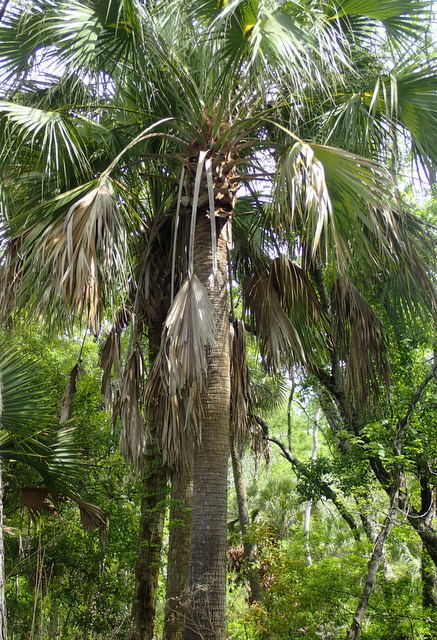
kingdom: Plantae
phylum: Tracheophyta
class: Liliopsida
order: Arecales
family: Arecaceae
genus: Sabal
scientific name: Sabal palmetto
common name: Blue palmetto
